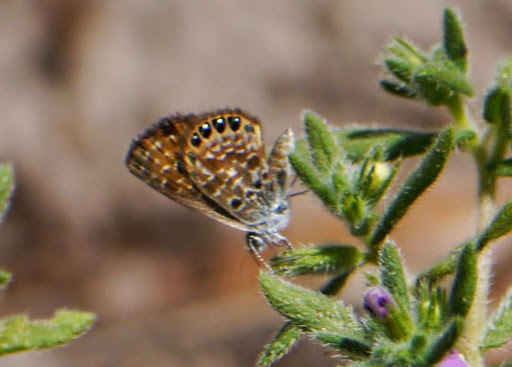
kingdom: Animalia
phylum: Arthropoda
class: Insecta
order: Lepidoptera
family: Lycaenidae
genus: Brephidium
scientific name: Brephidium isophthalma
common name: Eastern pygmy-blue
